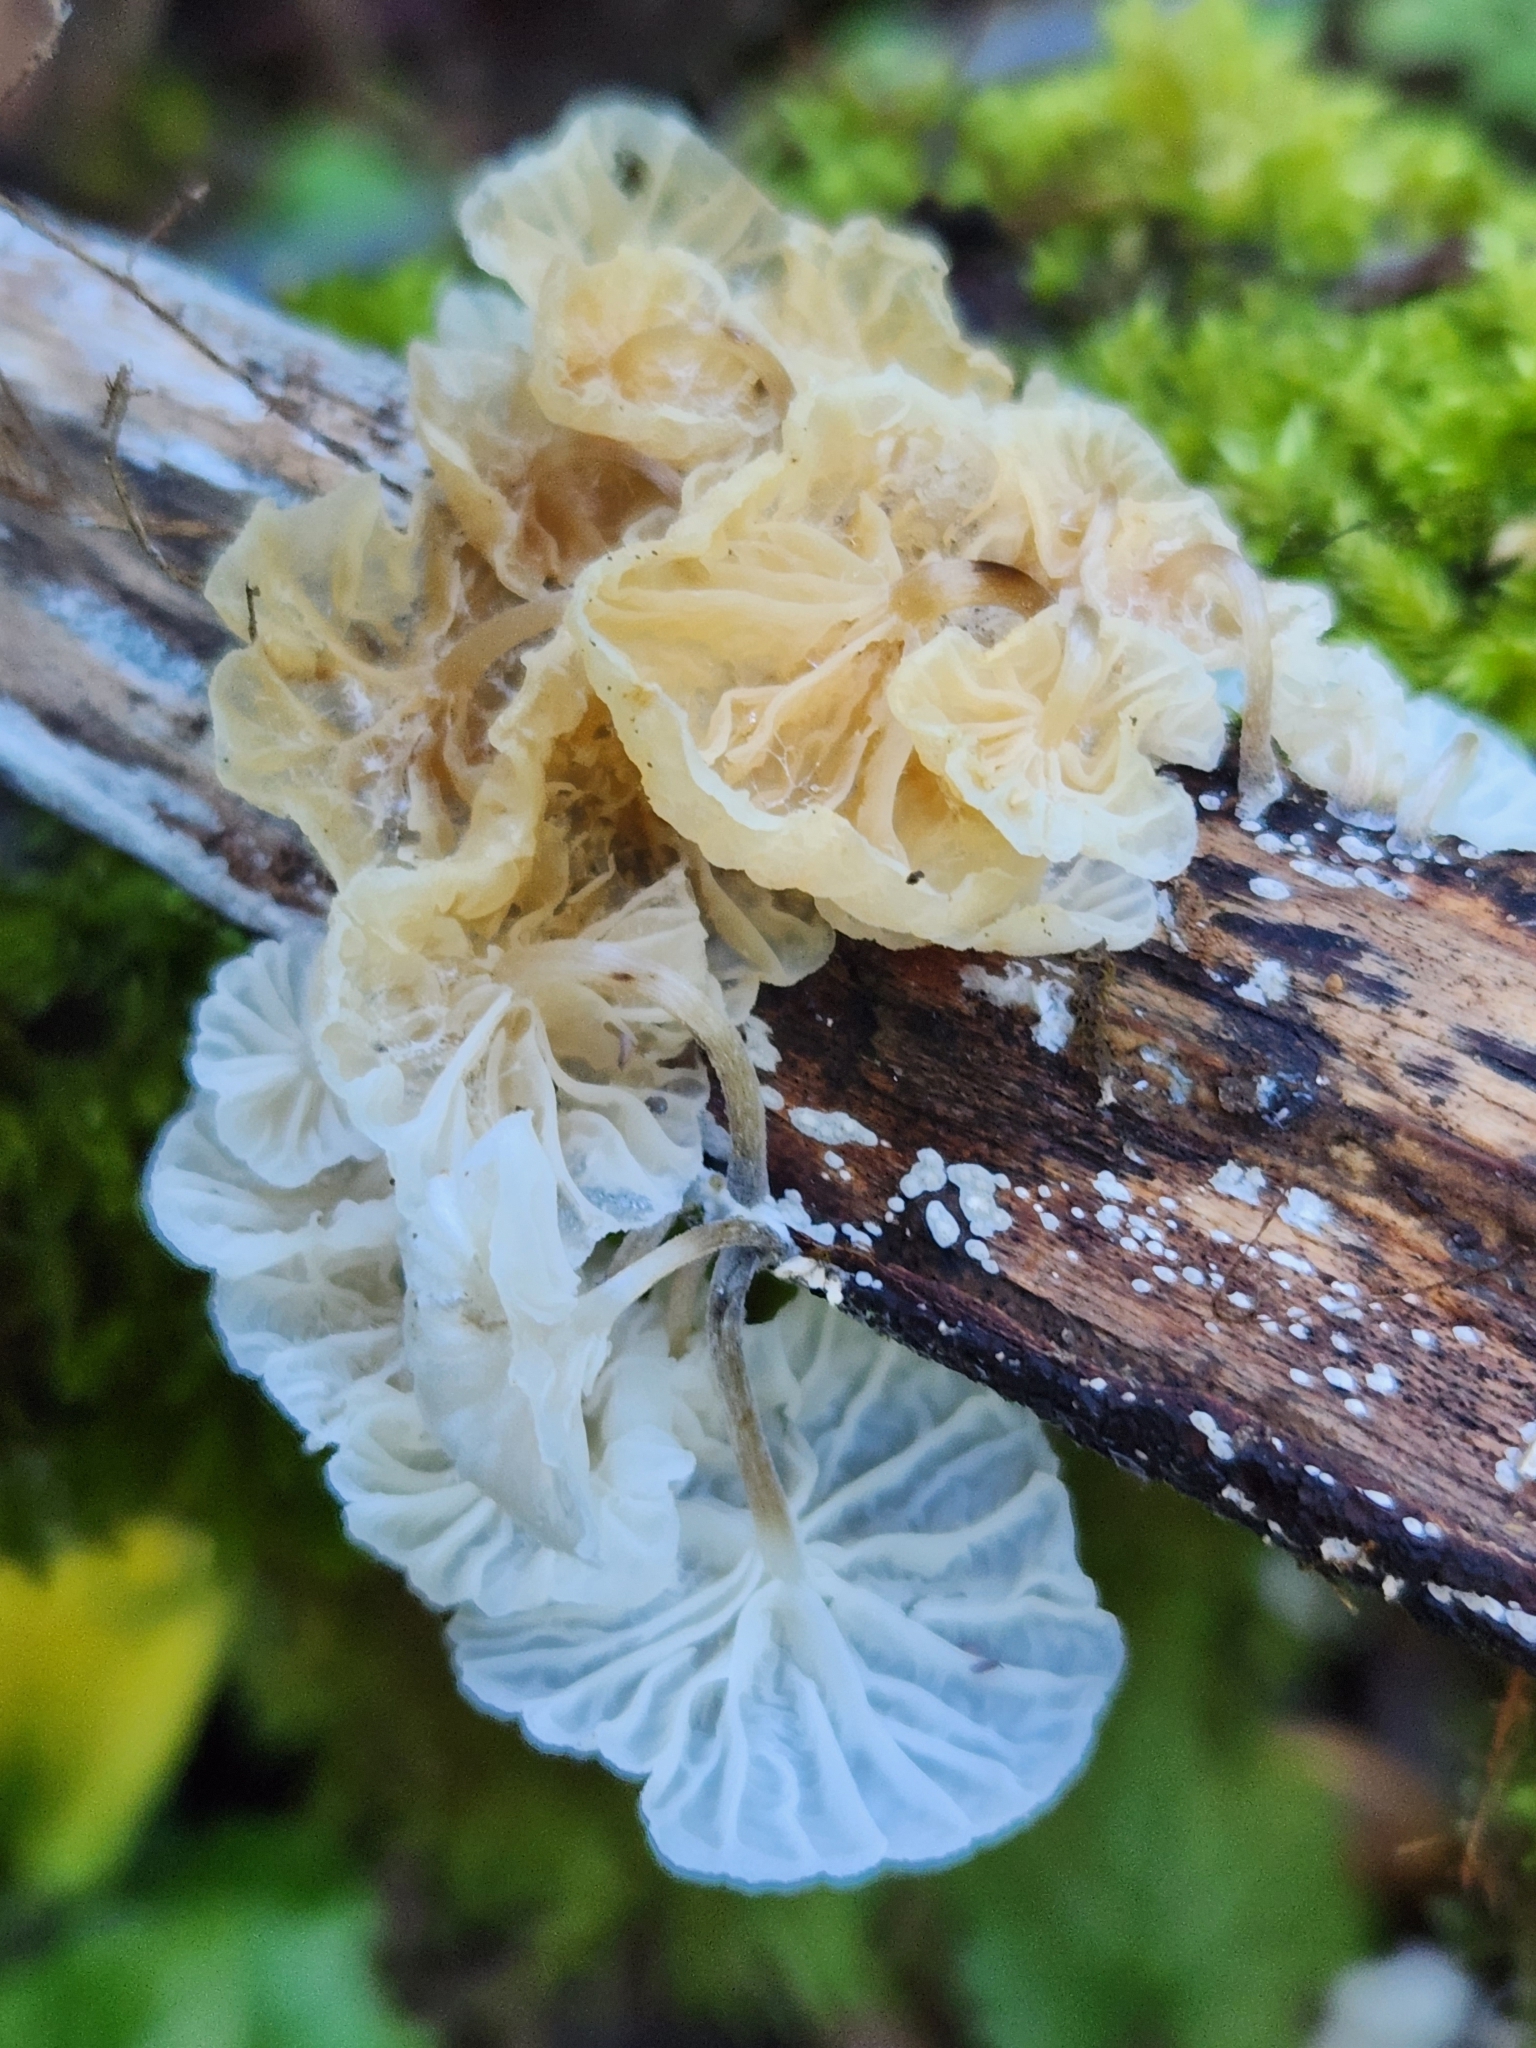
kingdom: Fungi
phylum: Basidiomycota
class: Agaricomycetes
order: Agaricales
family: Omphalotaceae
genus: Marasmiellus
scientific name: Marasmiellus candidus
